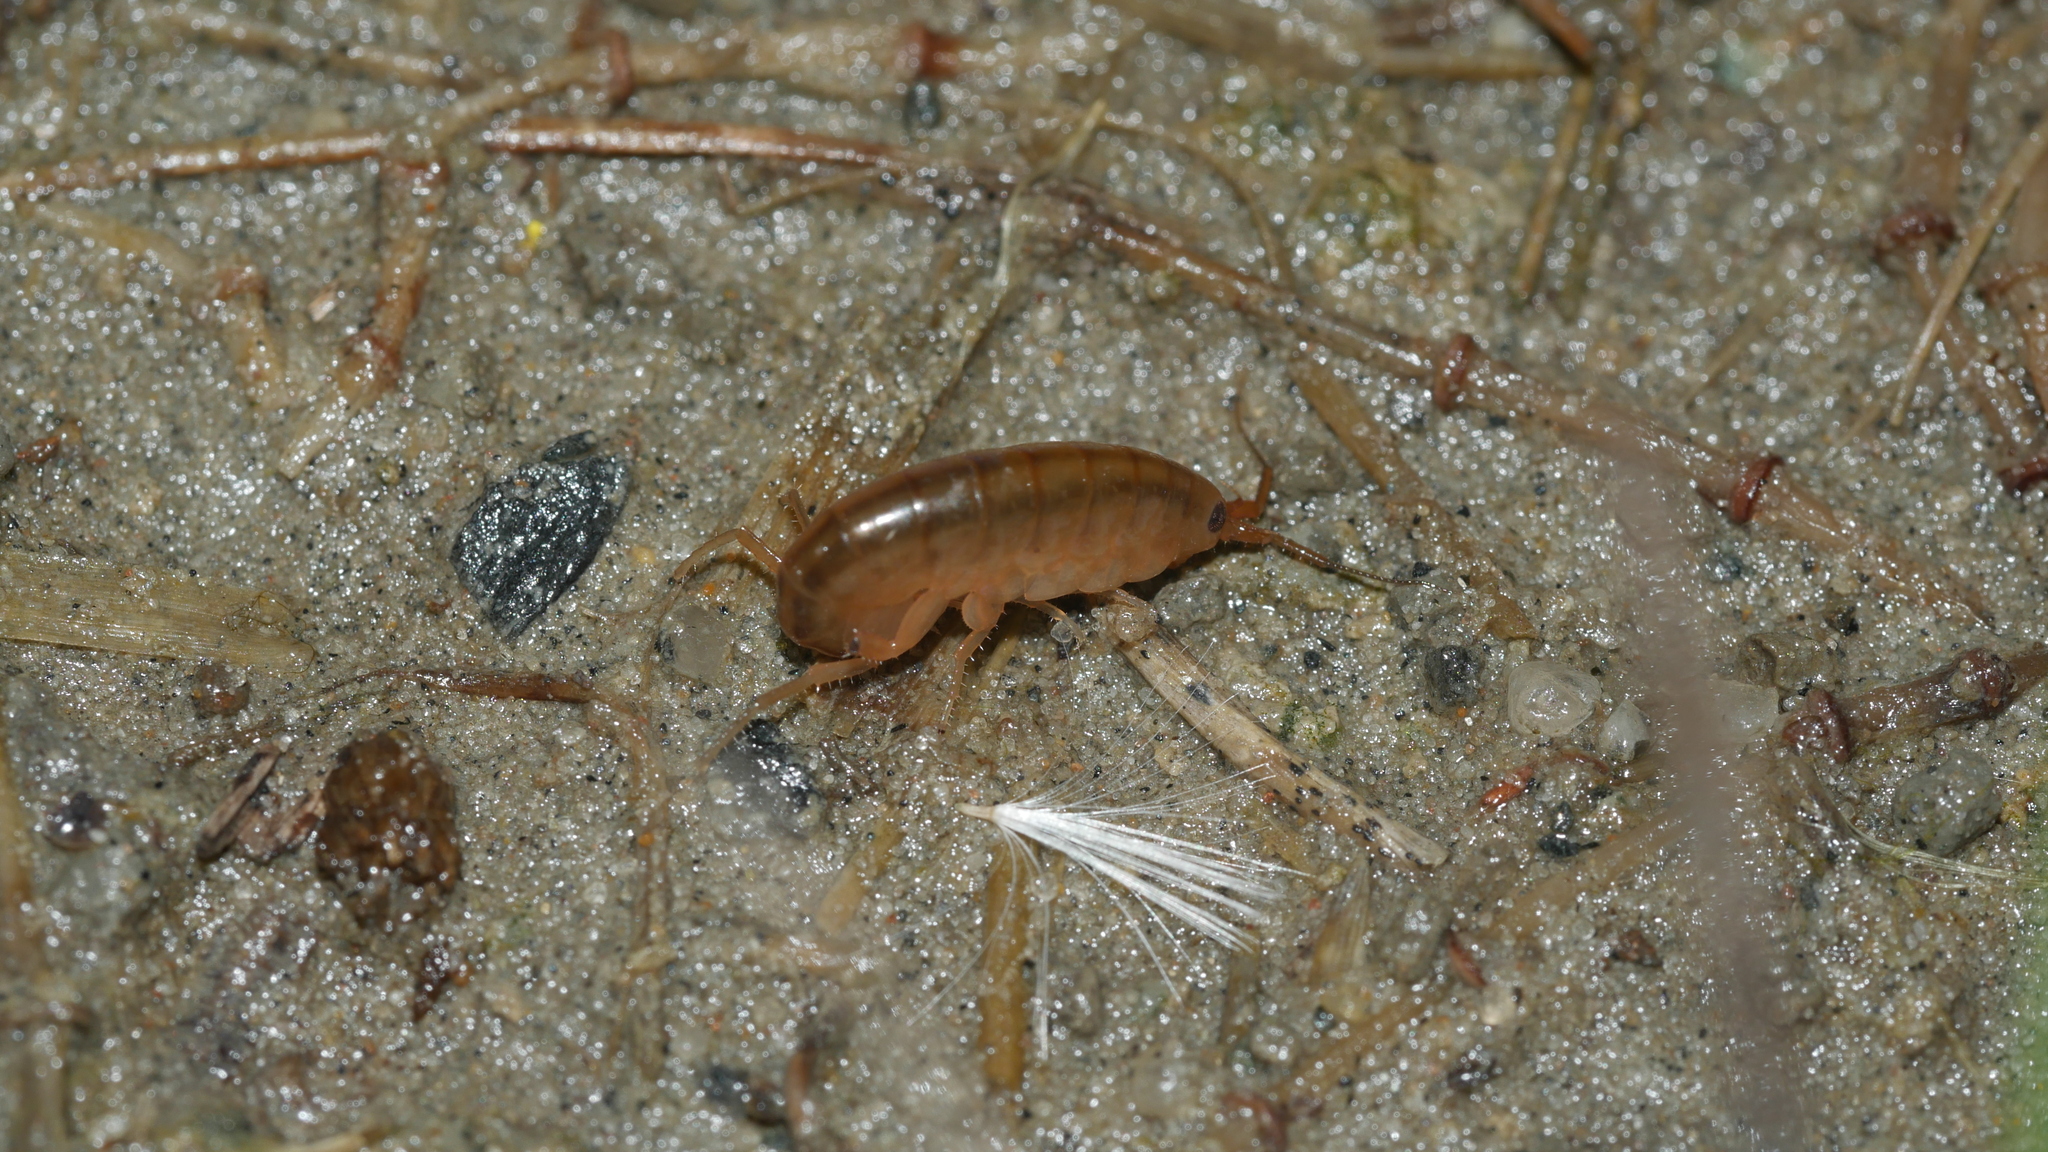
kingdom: Animalia
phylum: Arthropoda
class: Malacostraca
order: Amphipoda
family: Talitridae
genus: Speziorchestia
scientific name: Speziorchestia grillus
